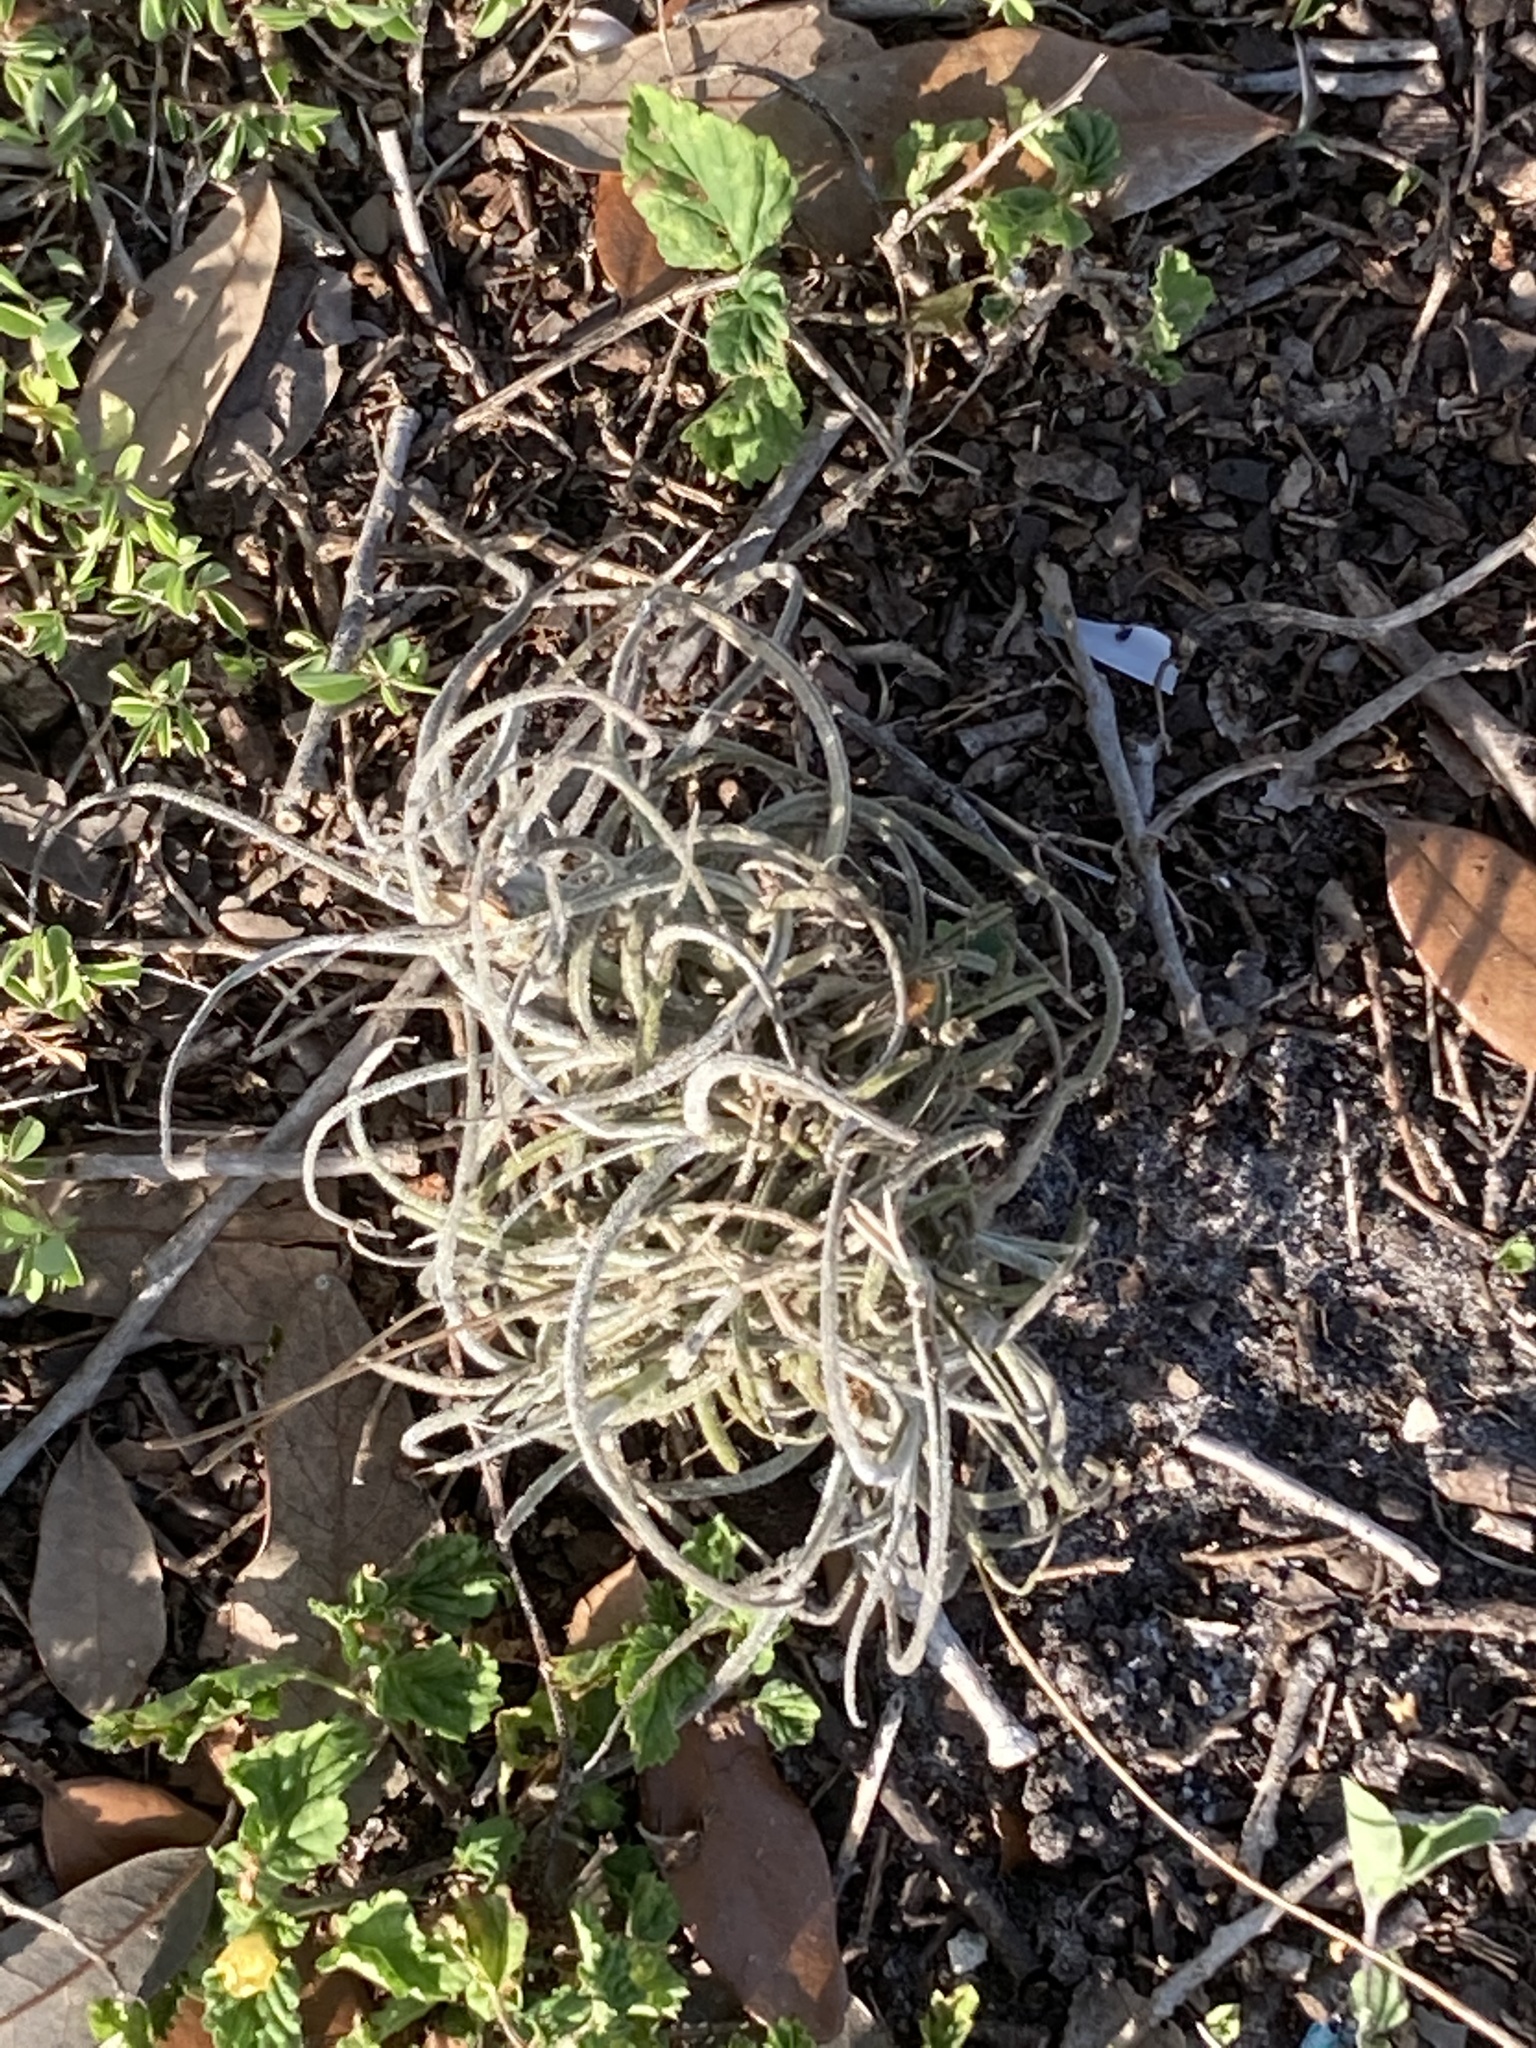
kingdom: Plantae
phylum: Tracheophyta
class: Liliopsida
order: Poales
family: Bromeliaceae
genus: Tillandsia
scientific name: Tillandsia recurvata
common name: Small ballmoss
